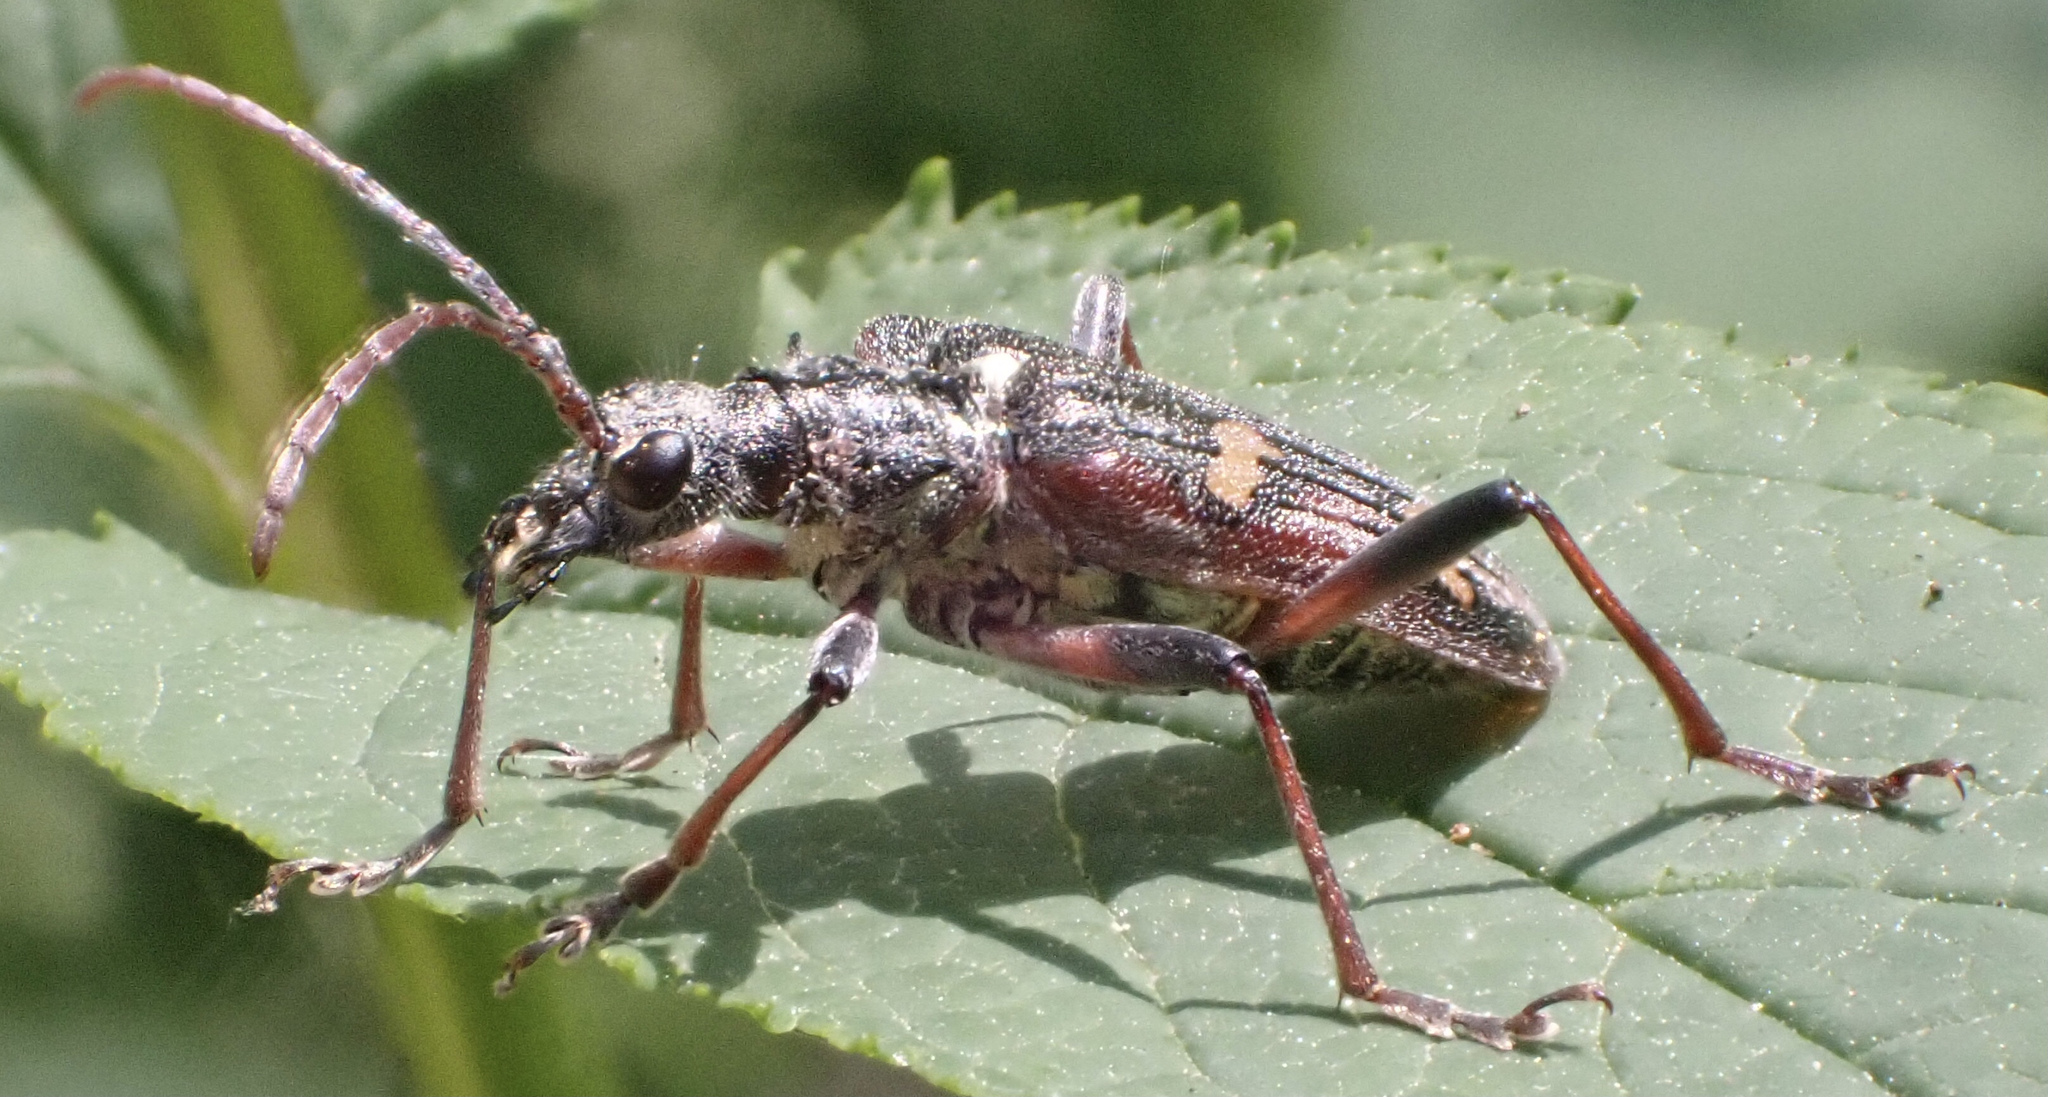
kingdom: Animalia
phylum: Arthropoda
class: Insecta
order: Coleoptera
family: Cerambycidae
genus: Rhagium
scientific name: Rhagium bifasciatum
